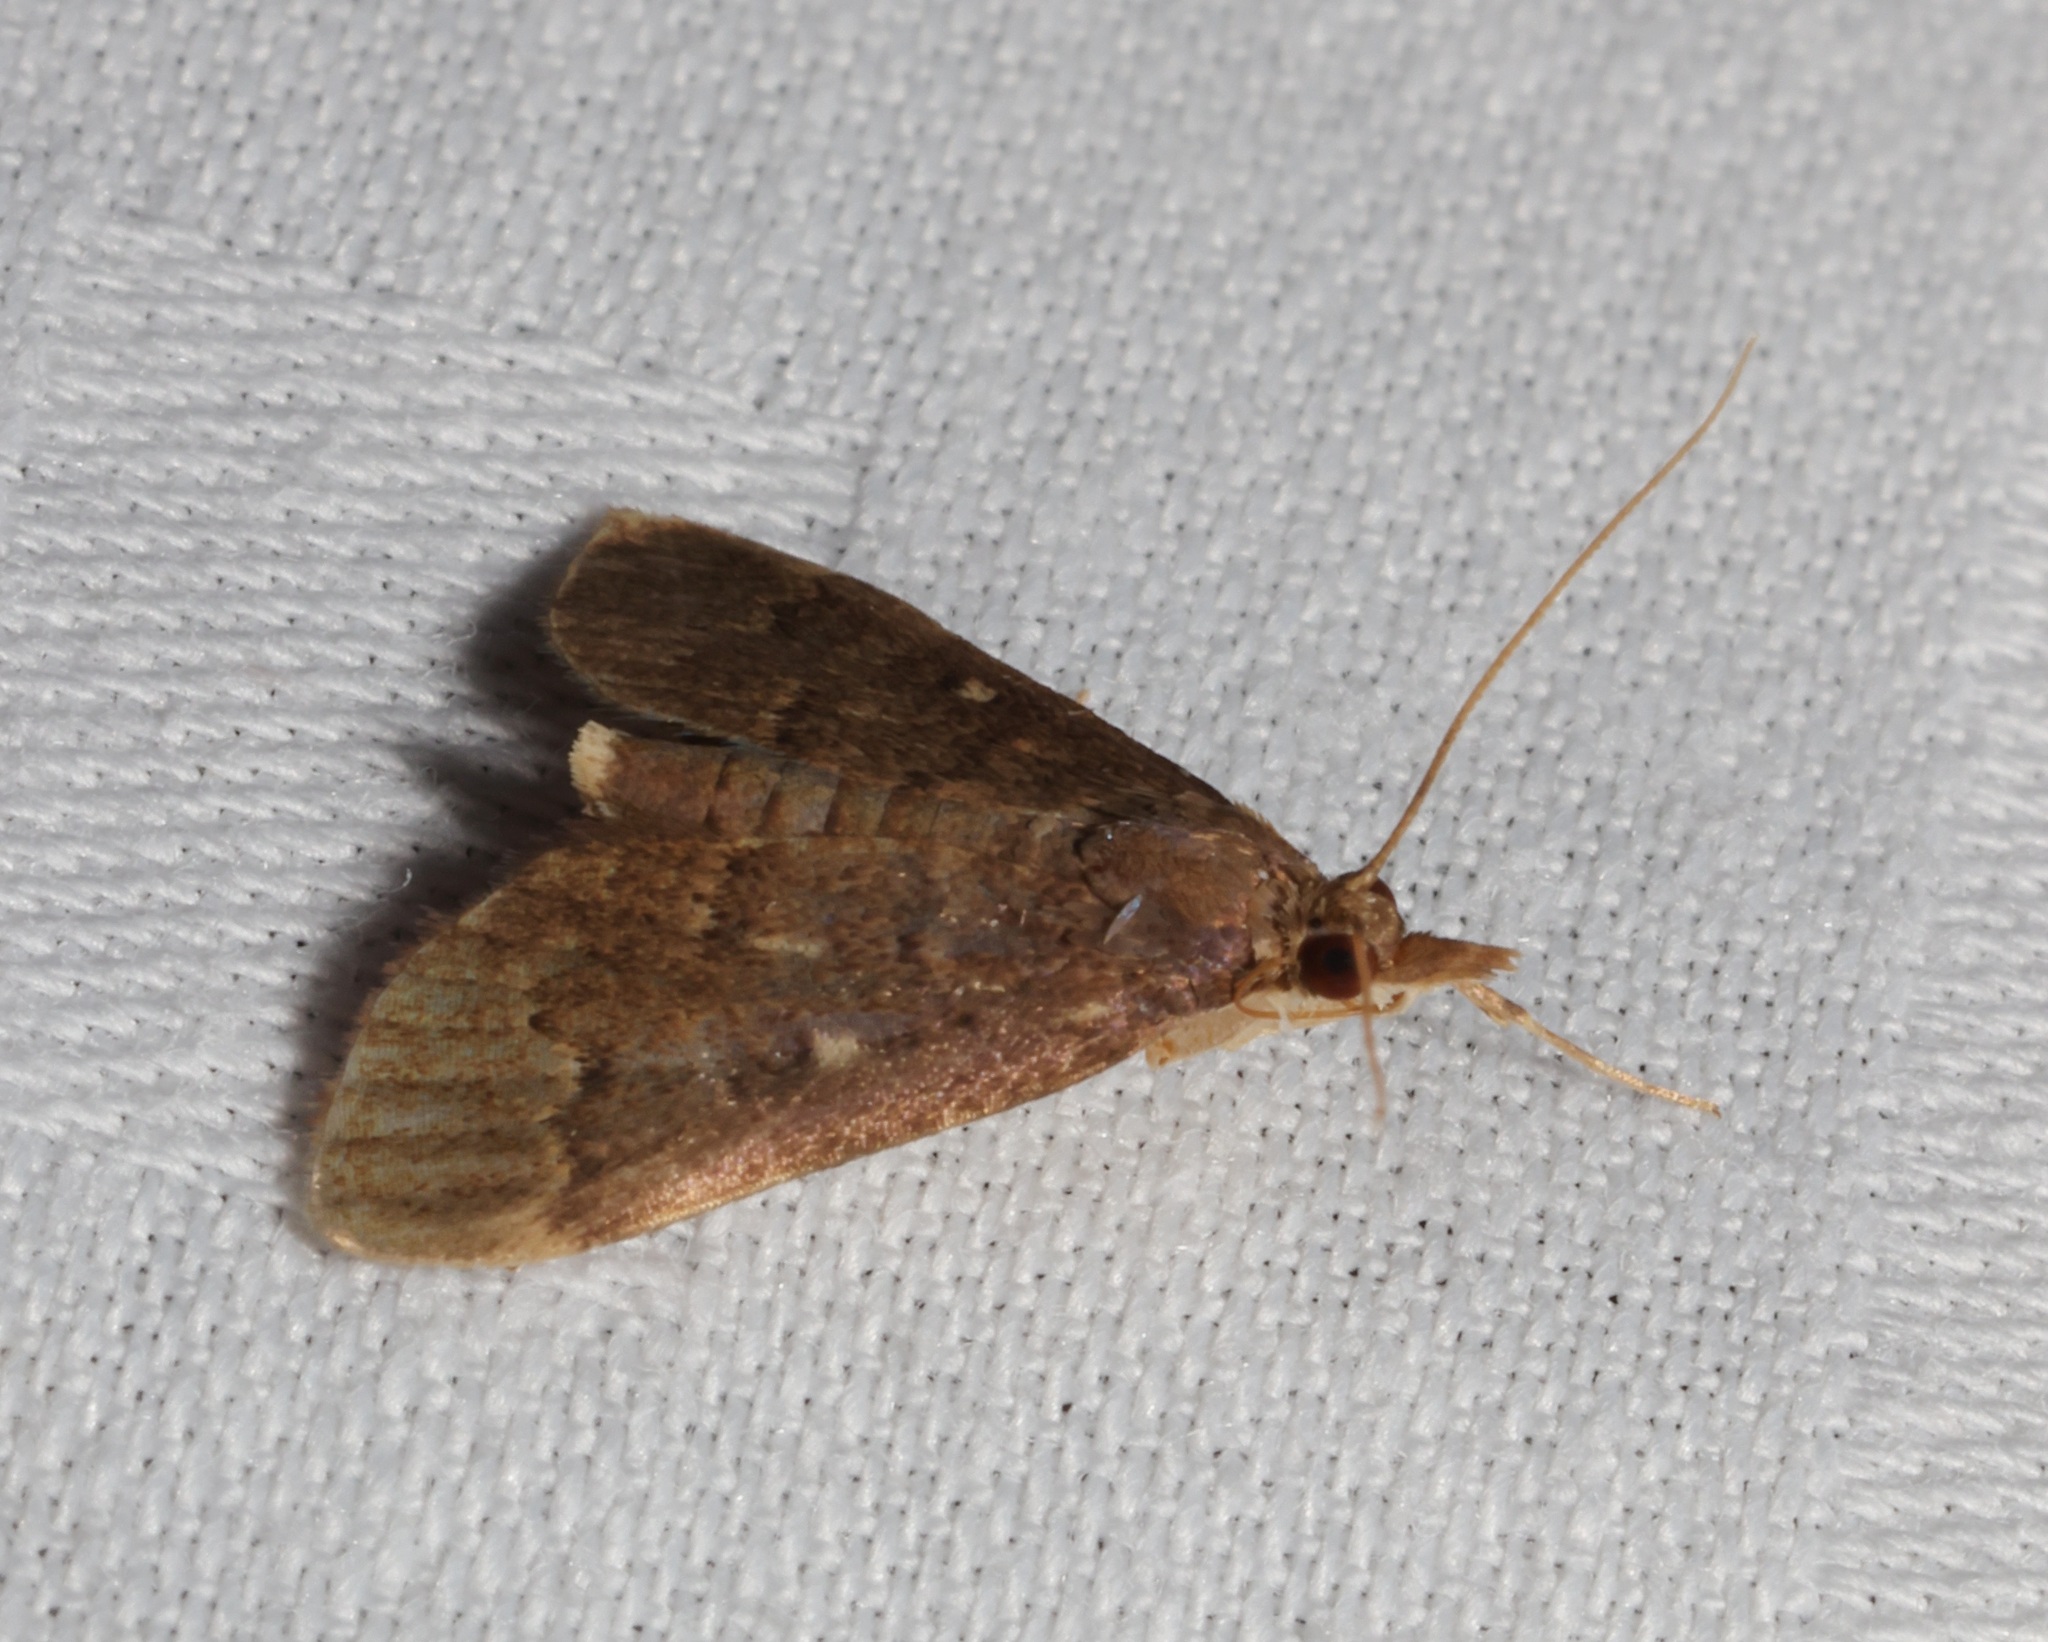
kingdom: Animalia
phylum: Arthropoda
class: Insecta
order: Lepidoptera
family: Crambidae
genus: Camptomastix
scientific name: Camptomastix hisbonalis
